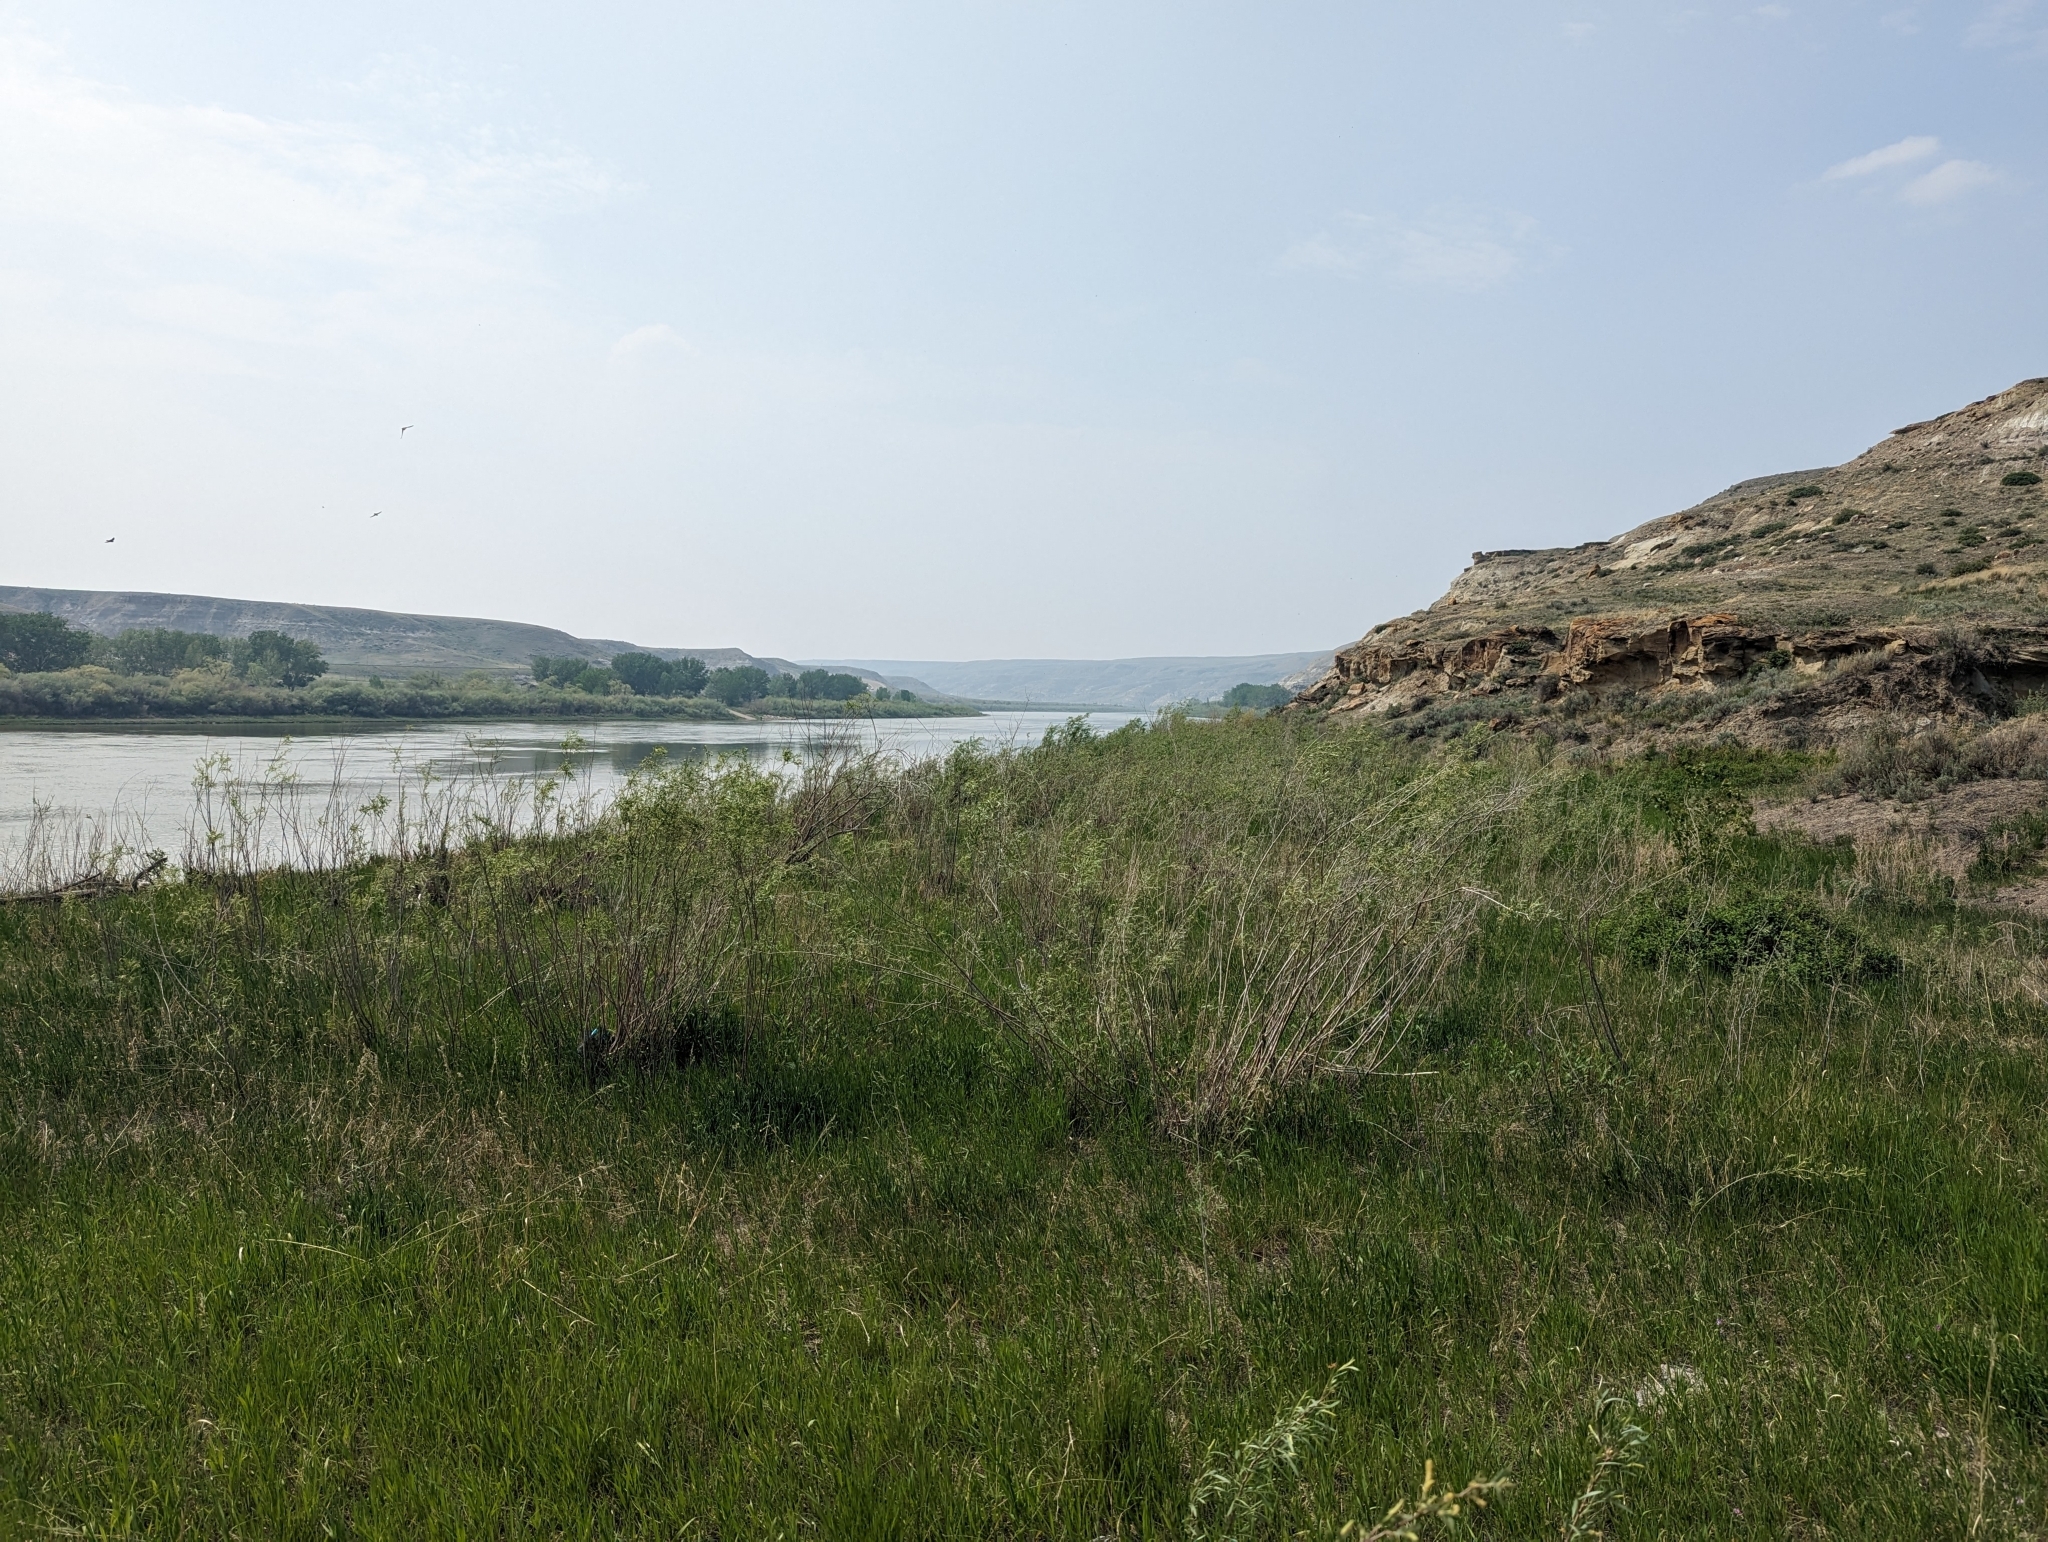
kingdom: Plantae
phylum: Tracheophyta
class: Magnoliopsida
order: Malpighiales
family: Salicaceae
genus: Salix
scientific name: Salix interior
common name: Sandbar willow
